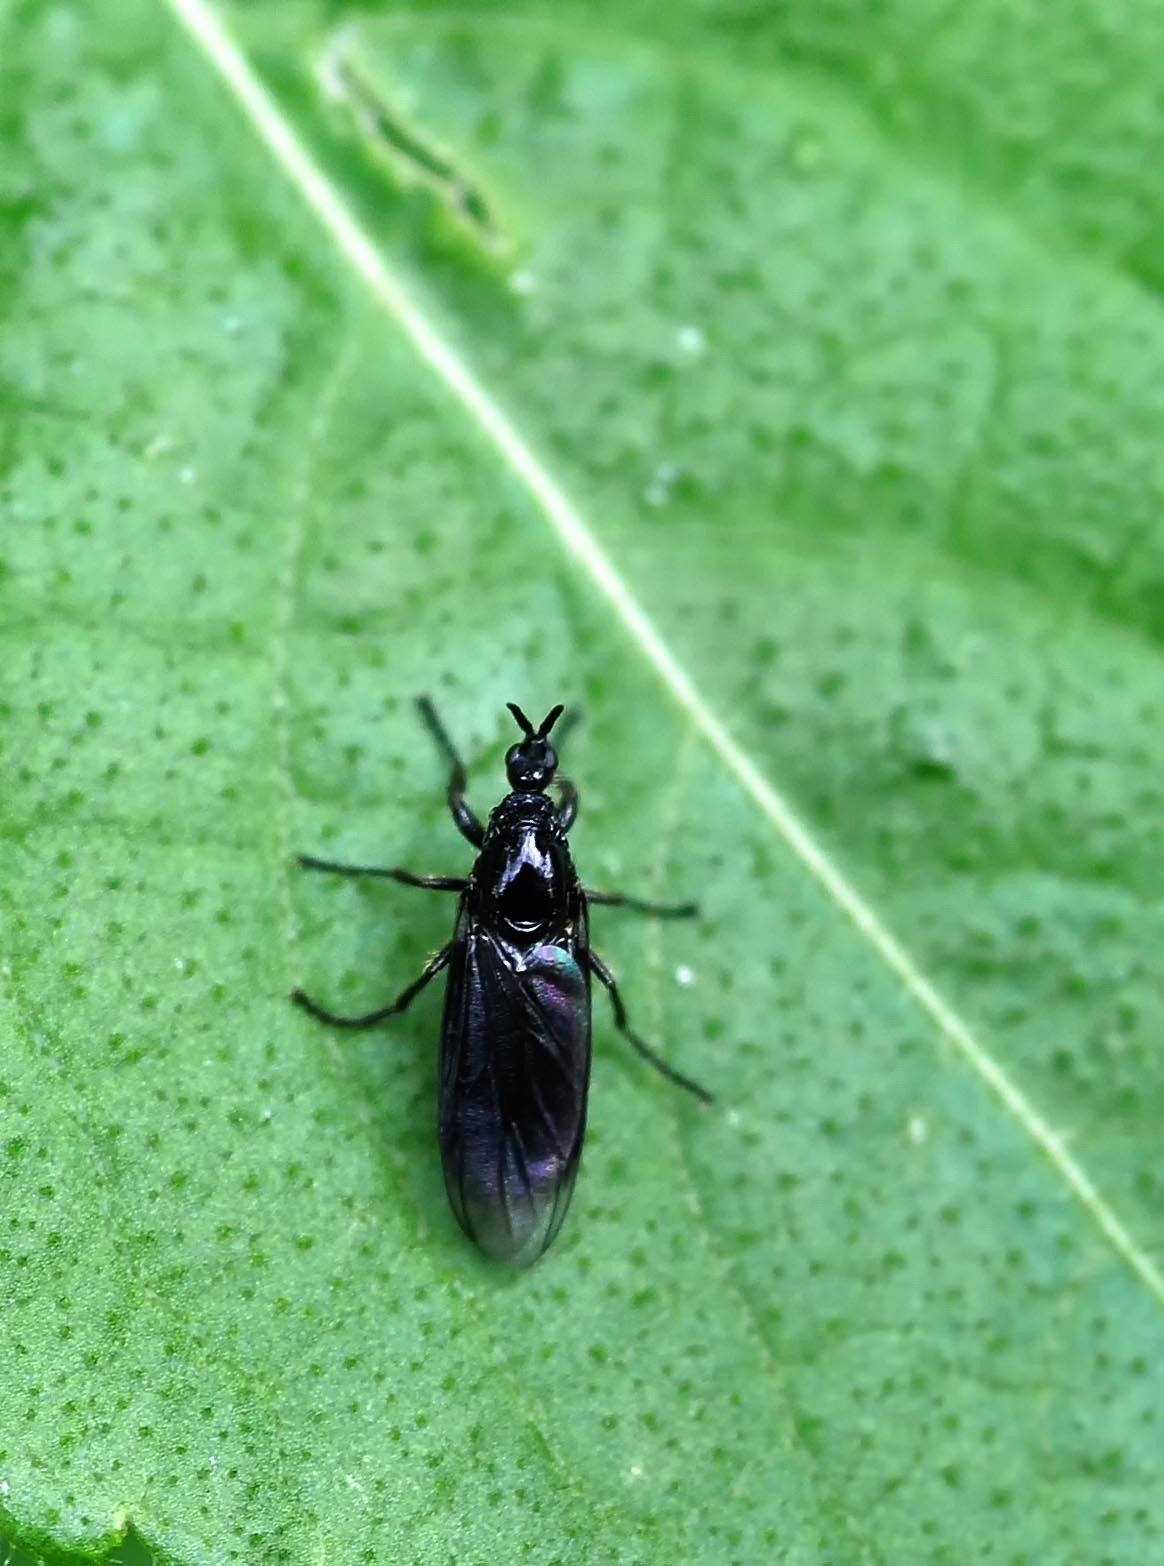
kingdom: Animalia
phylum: Arthropoda
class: Insecta
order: Diptera
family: Bibionidae
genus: Dilophus
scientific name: Dilophus febrilis
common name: Fever fly
